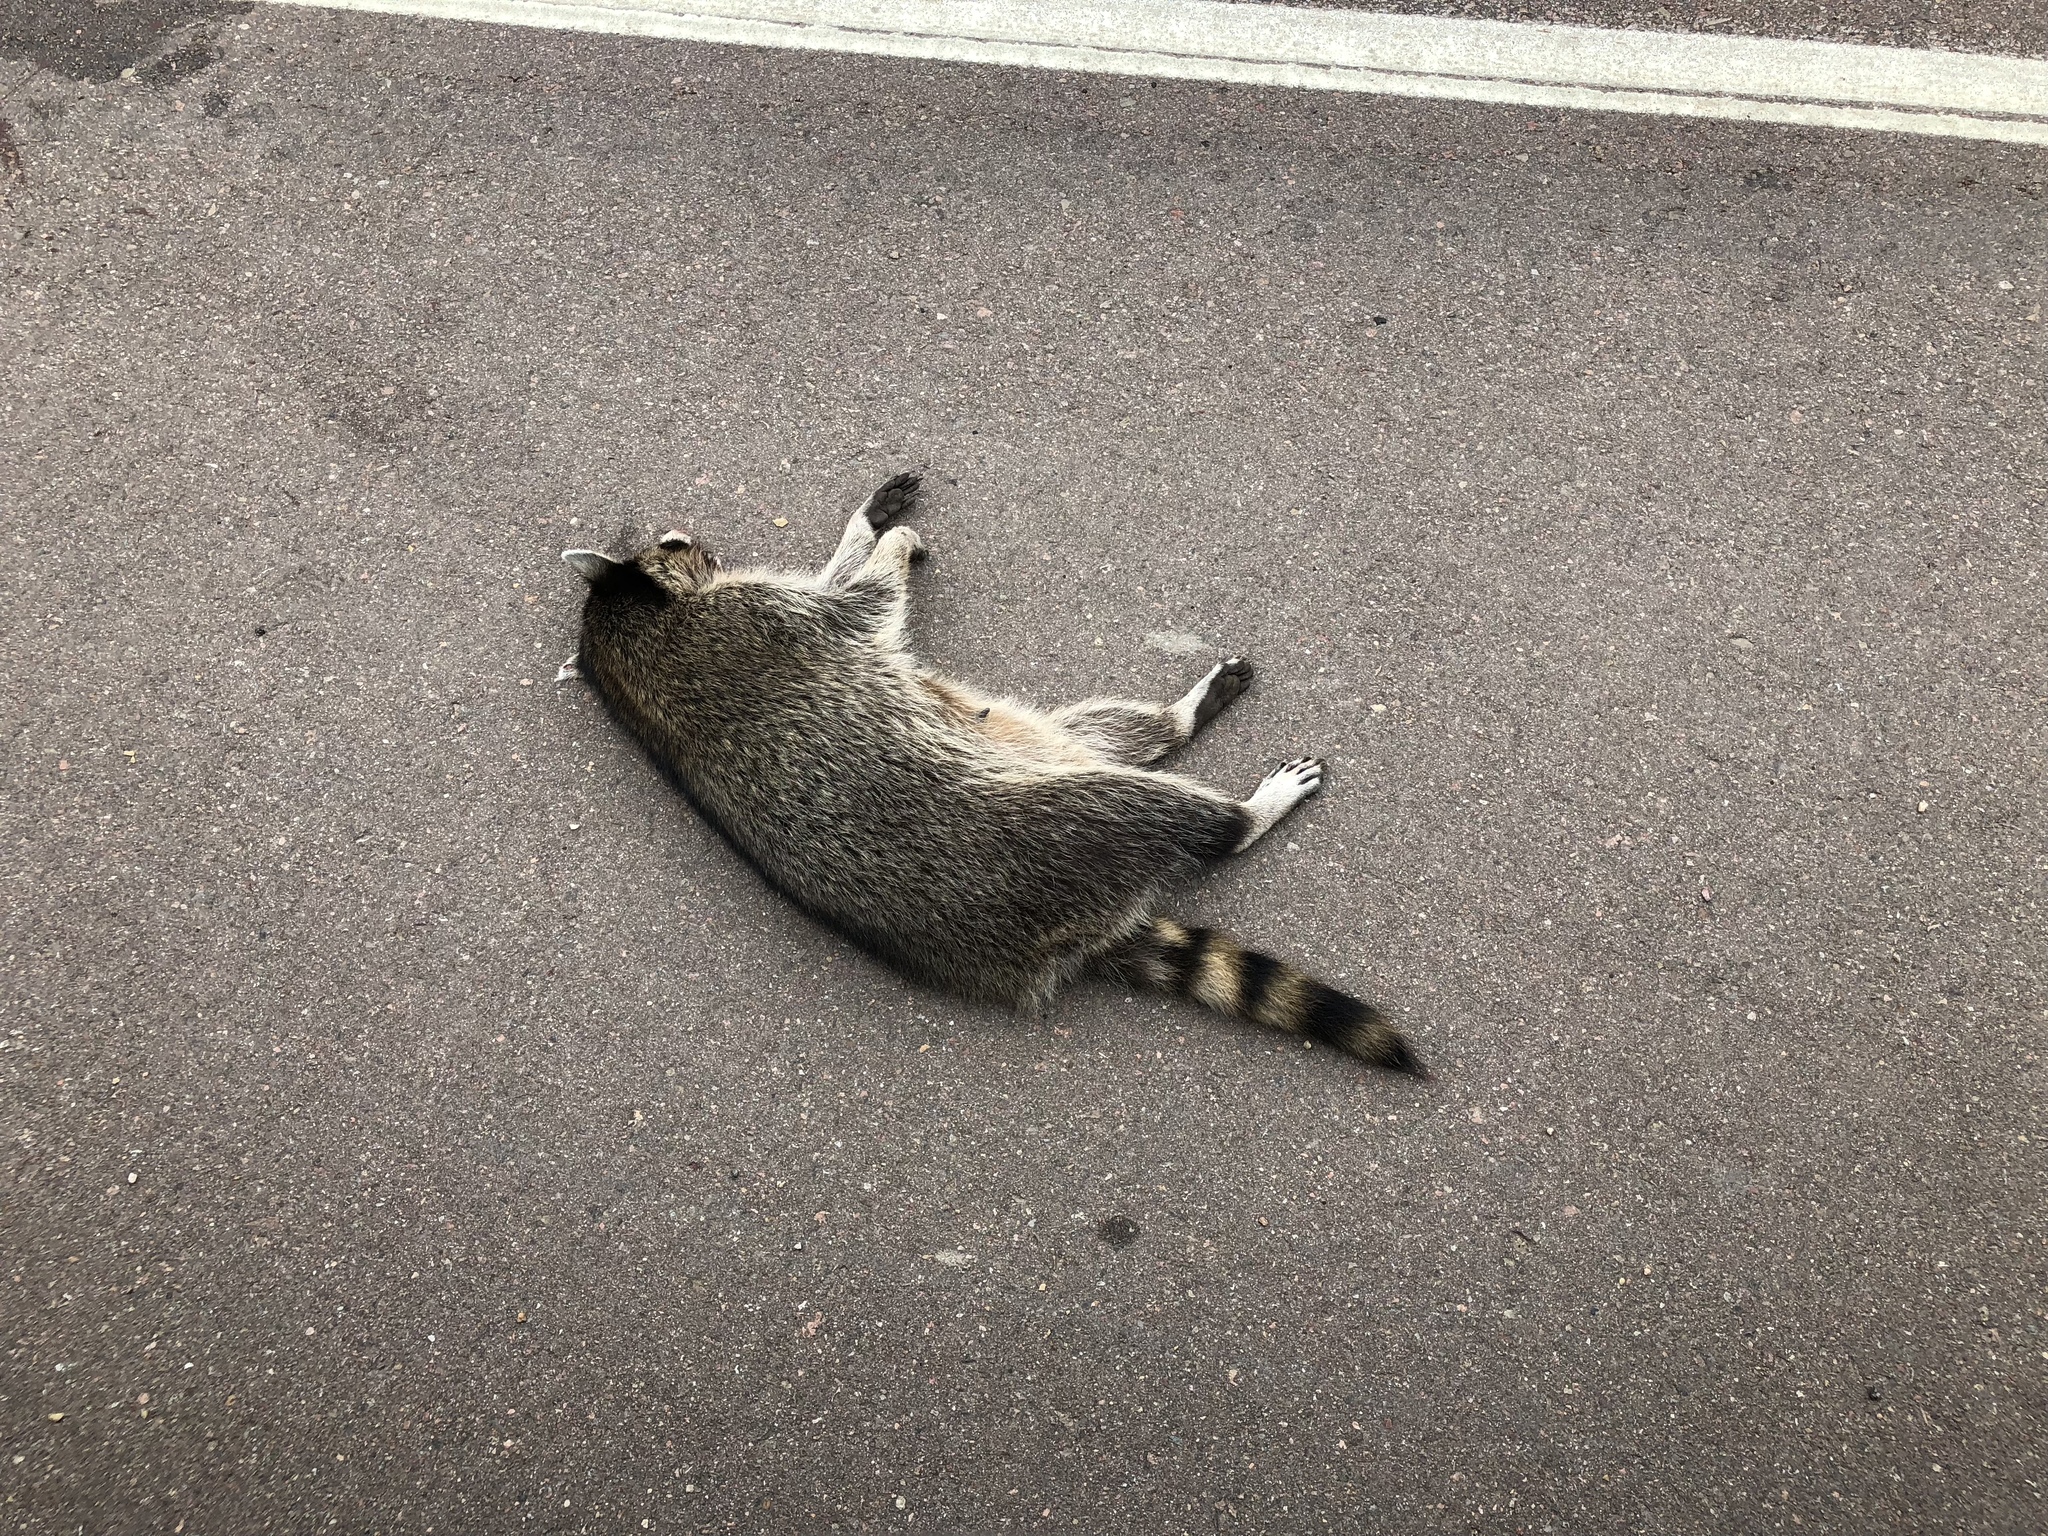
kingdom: Animalia
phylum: Chordata
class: Mammalia
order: Carnivora
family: Procyonidae
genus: Procyon
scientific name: Procyon lotor
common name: Raccoon
